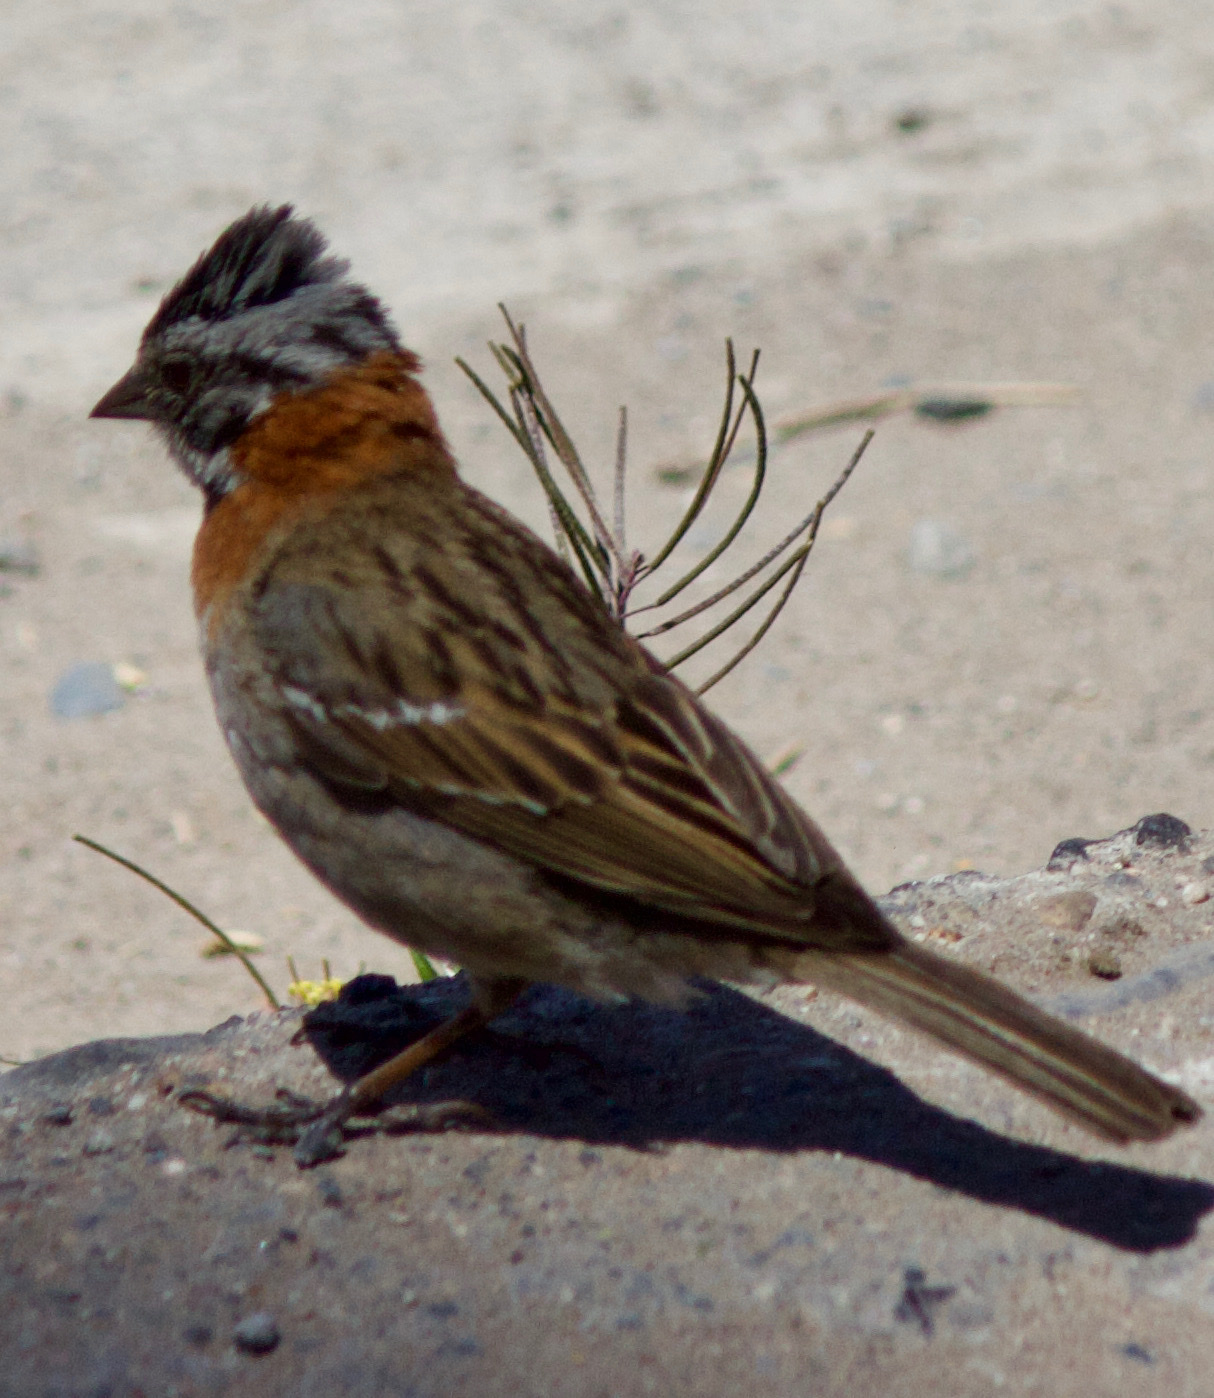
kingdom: Animalia
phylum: Chordata
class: Aves
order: Passeriformes
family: Passerellidae
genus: Zonotrichia
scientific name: Zonotrichia capensis
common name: Rufous-collared sparrow
